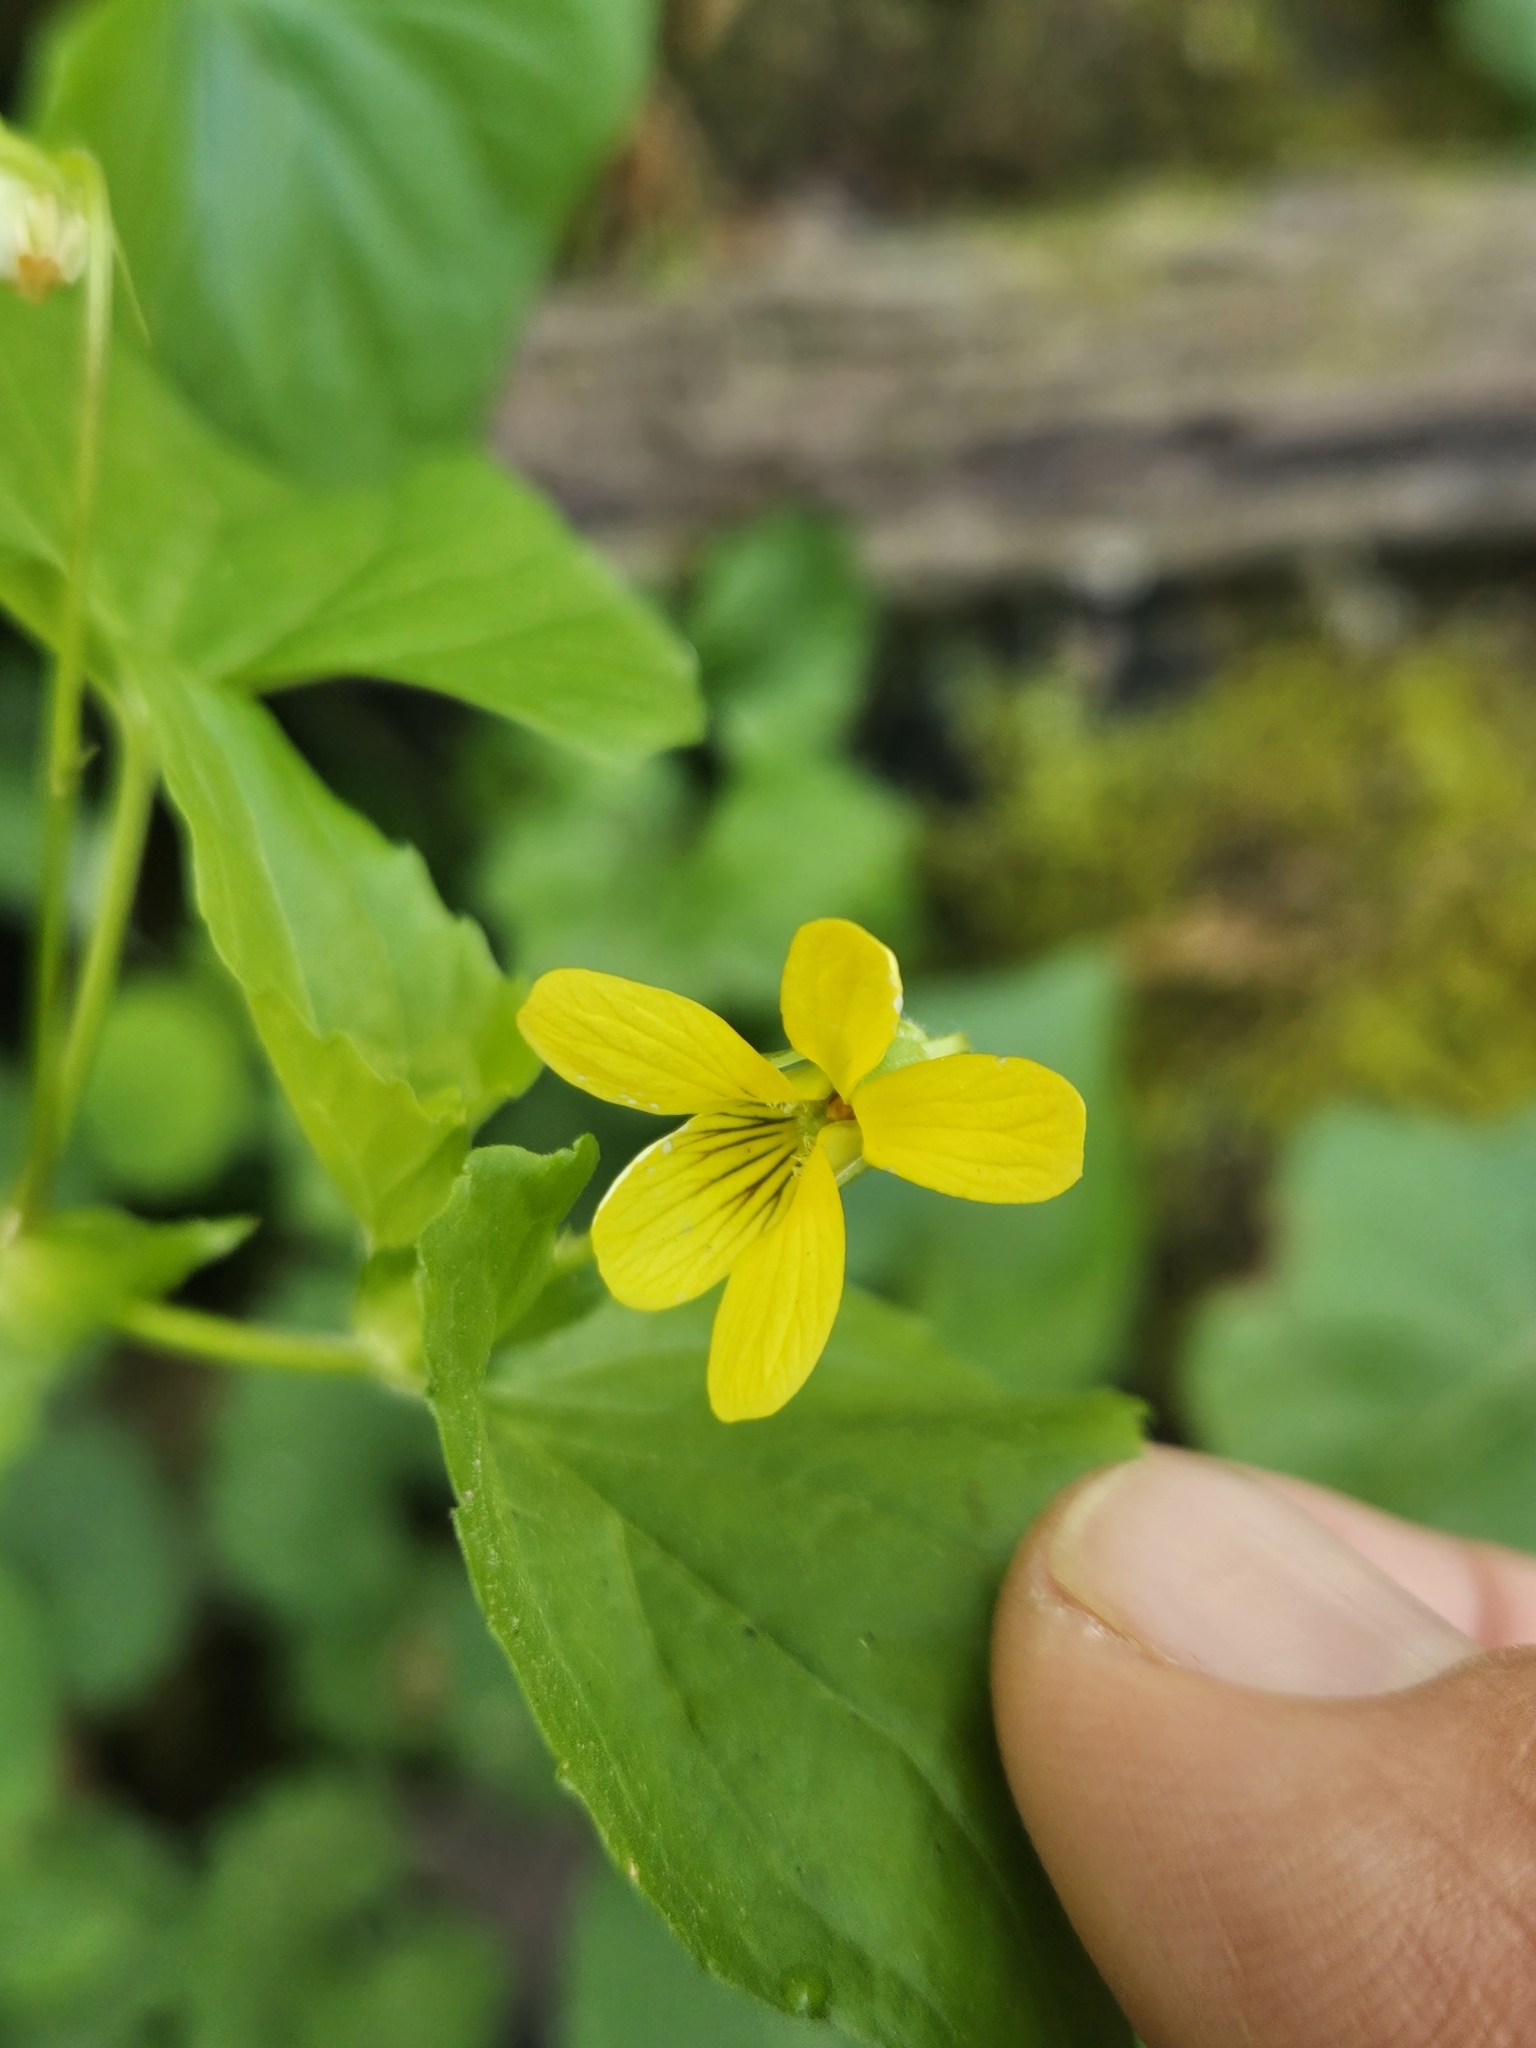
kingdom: Plantae
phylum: Tracheophyta
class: Magnoliopsida
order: Malpighiales
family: Violaceae
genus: Viola
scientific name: Viola eriocarpa
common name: Smooth yellow violet
